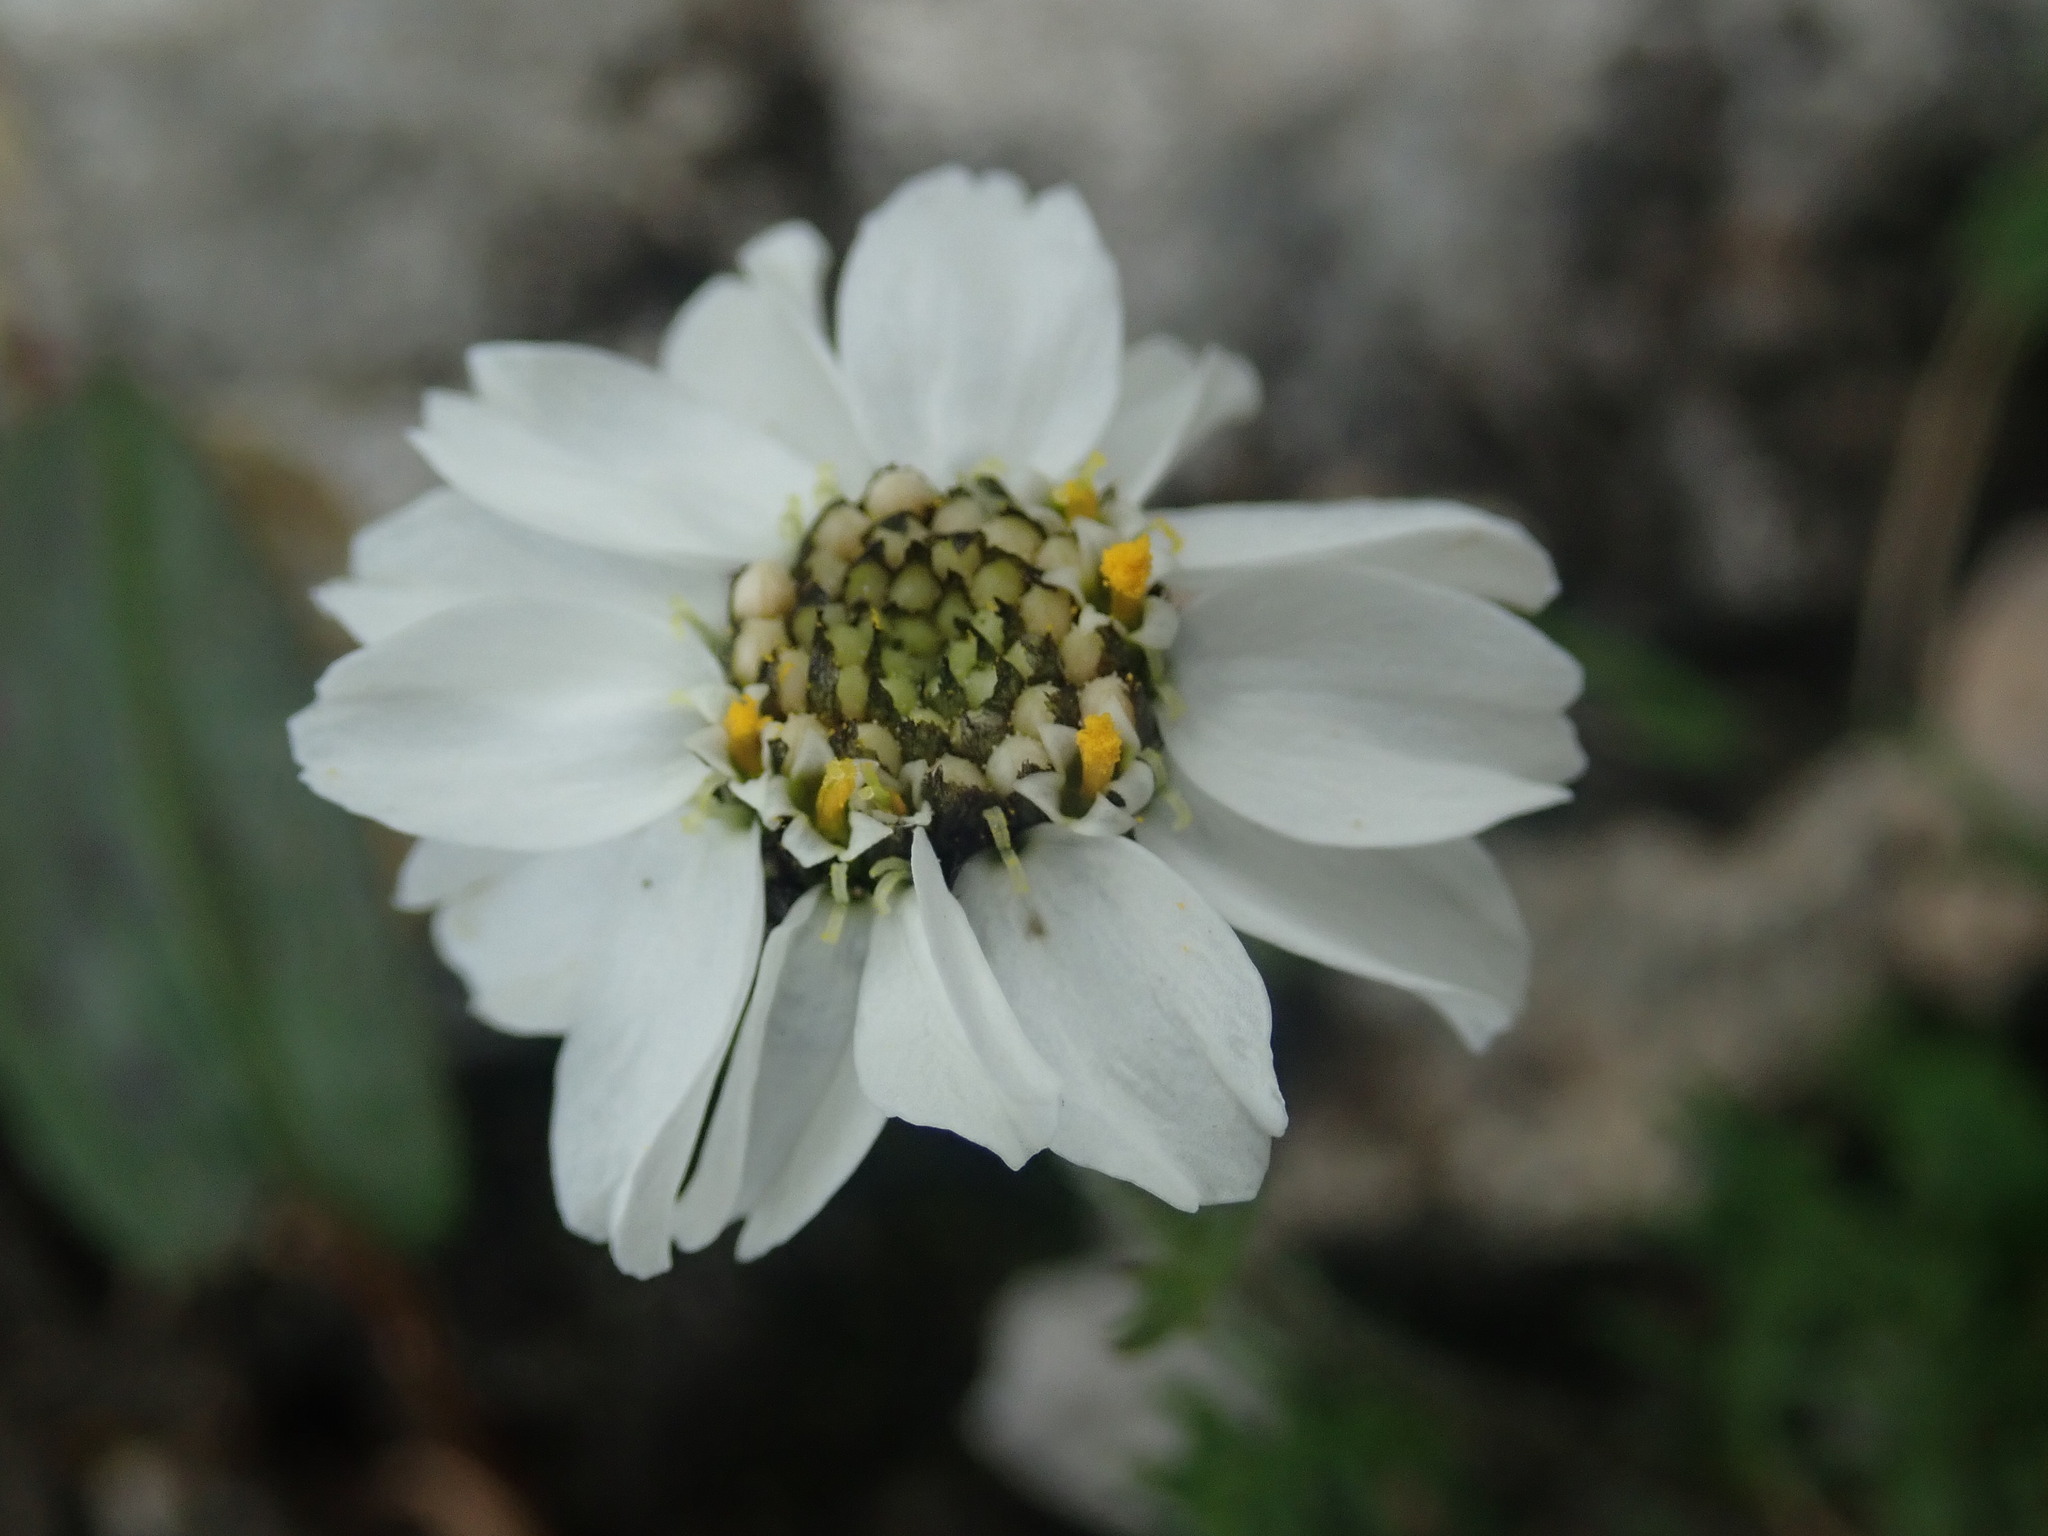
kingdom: Plantae
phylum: Tracheophyta
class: Magnoliopsida
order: Asterales
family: Asteraceae
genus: Achillea
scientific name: Achillea atrata
